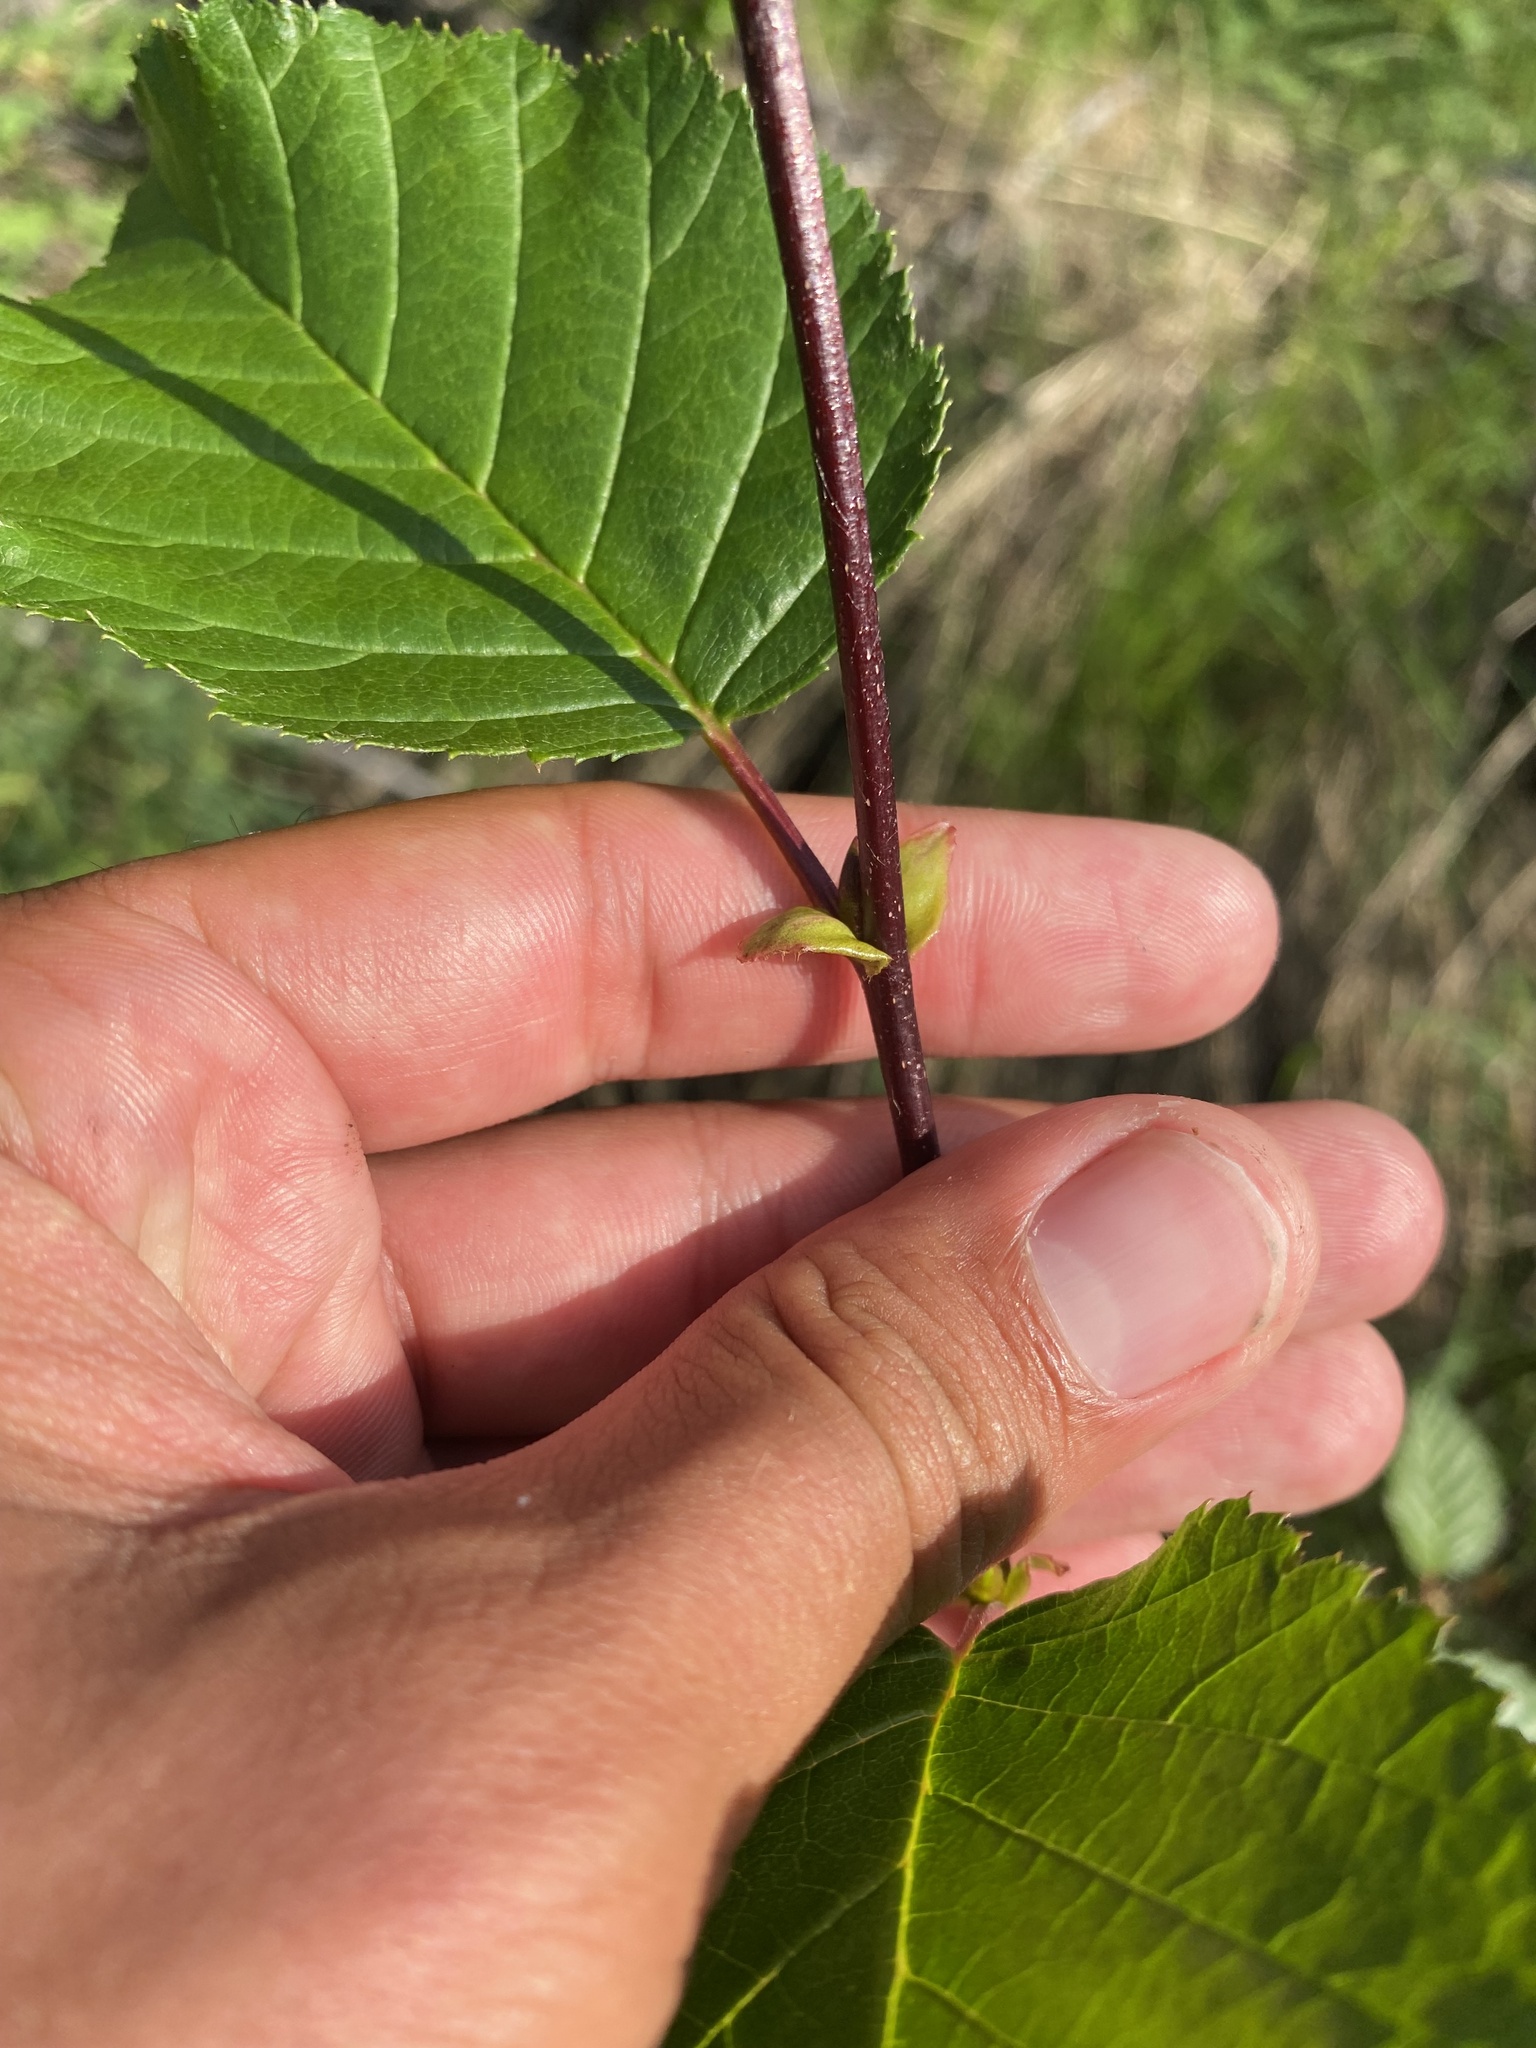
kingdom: Plantae
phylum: Tracheophyta
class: Magnoliopsida
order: Fagales
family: Betulaceae
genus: Alnus
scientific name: Alnus alnobetula
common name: Green alder
